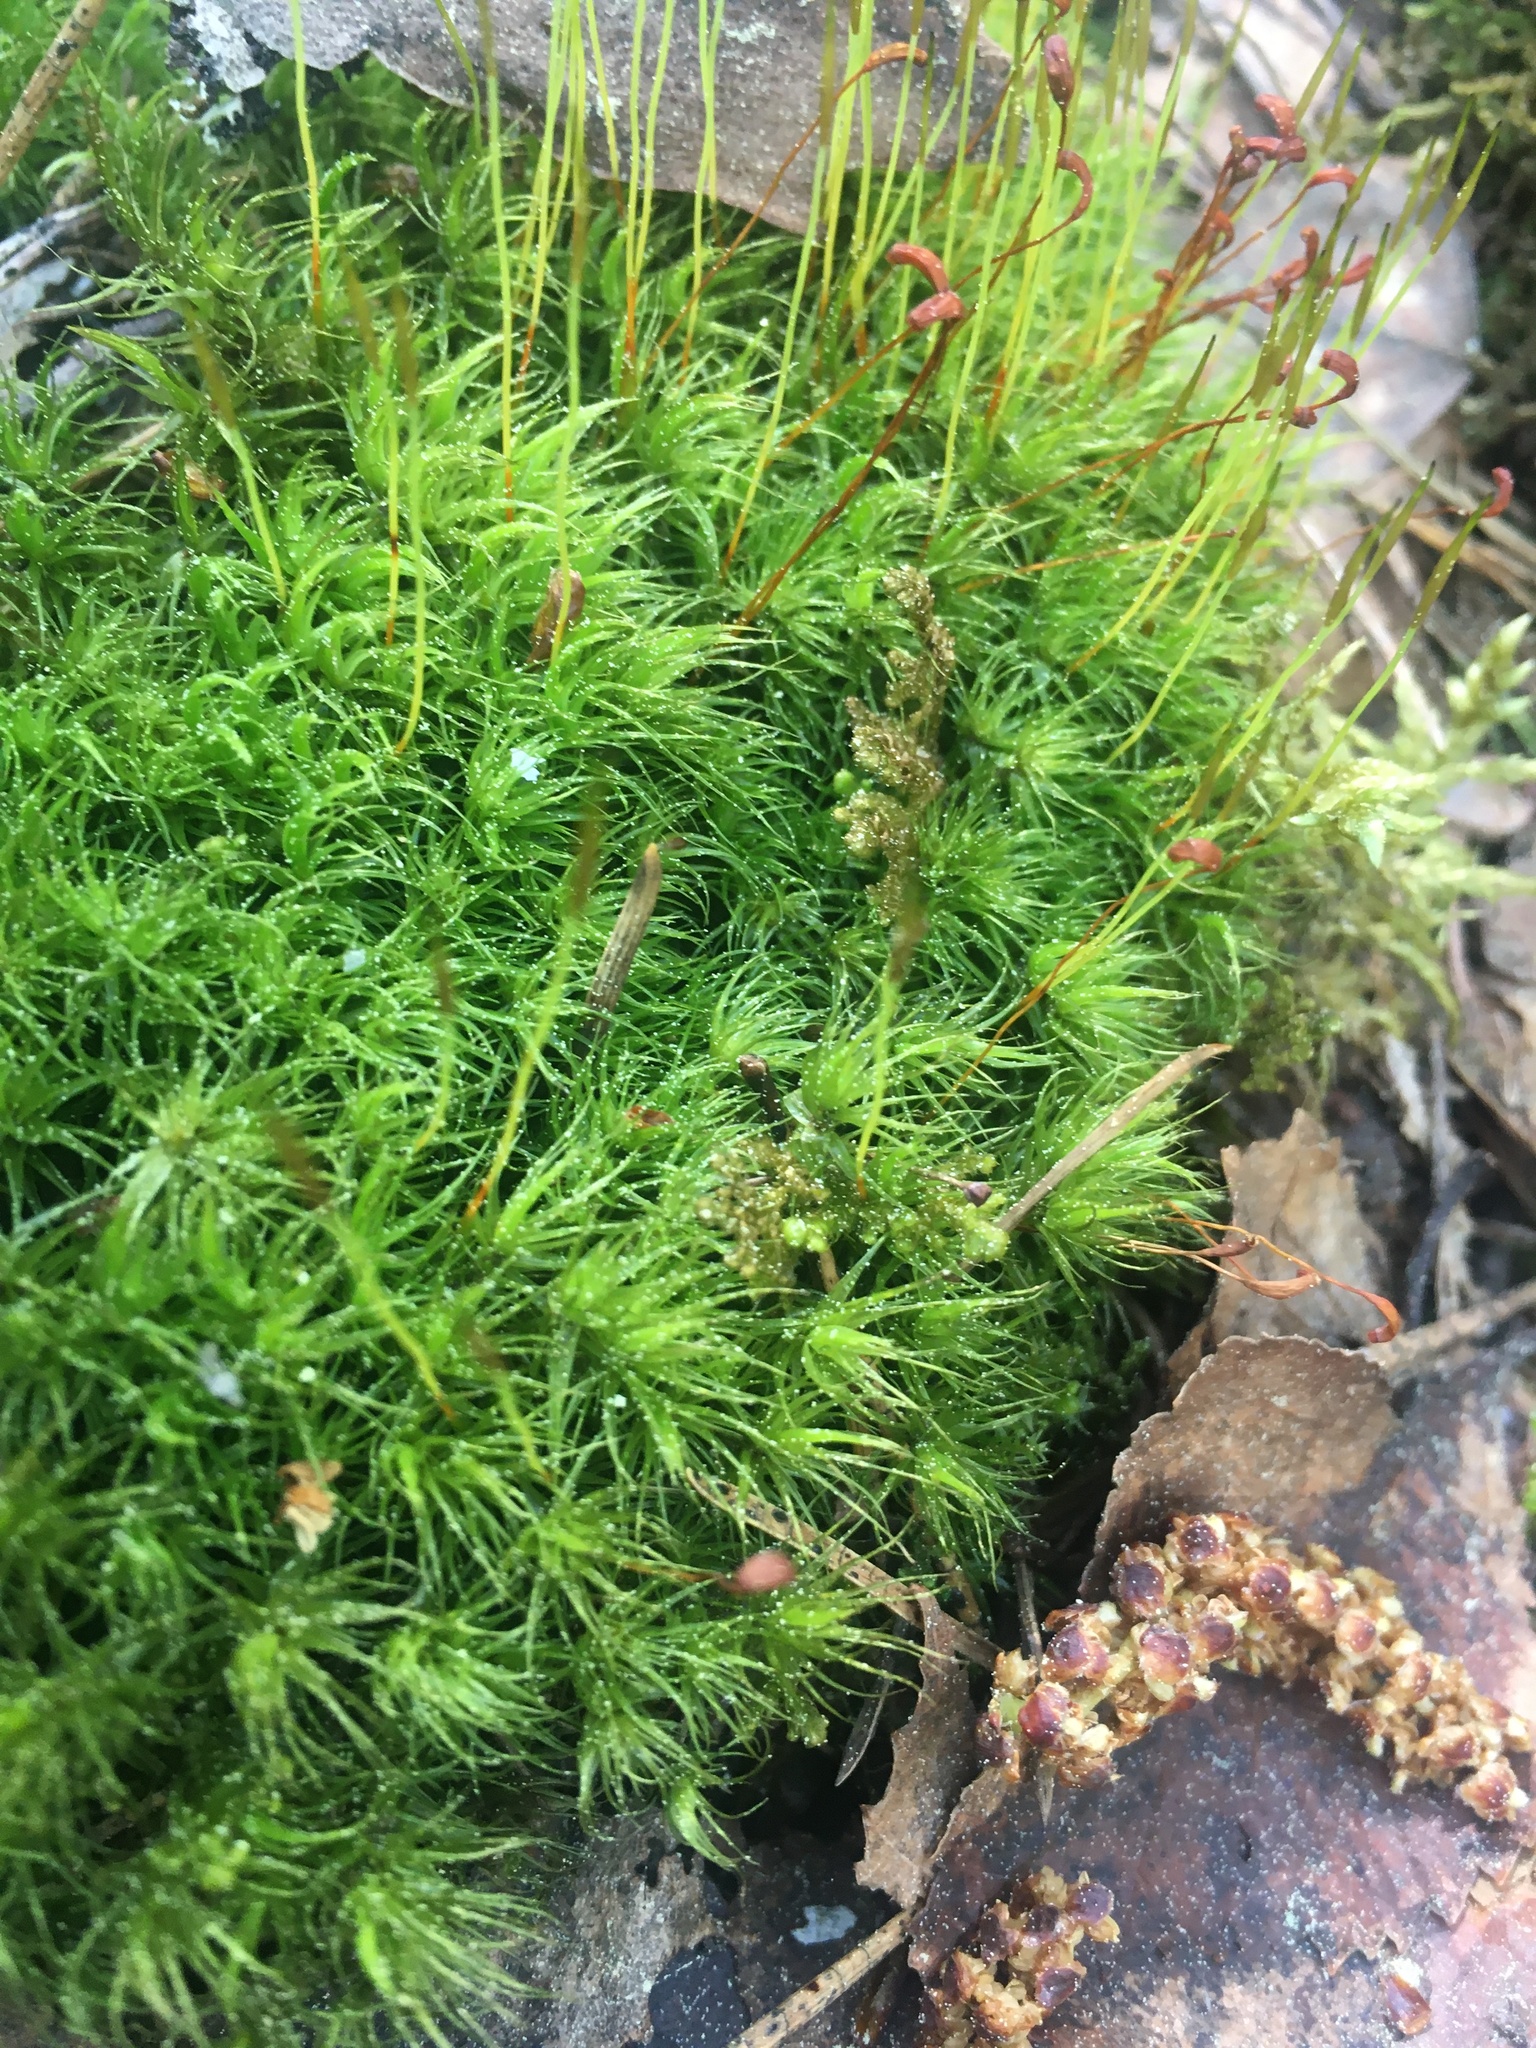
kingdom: Plantae
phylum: Bryophyta
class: Bryopsida
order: Dicranales
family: Dicranaceae
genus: Dicranum
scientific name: Dicranum scoparium
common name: Broom fork-moss
